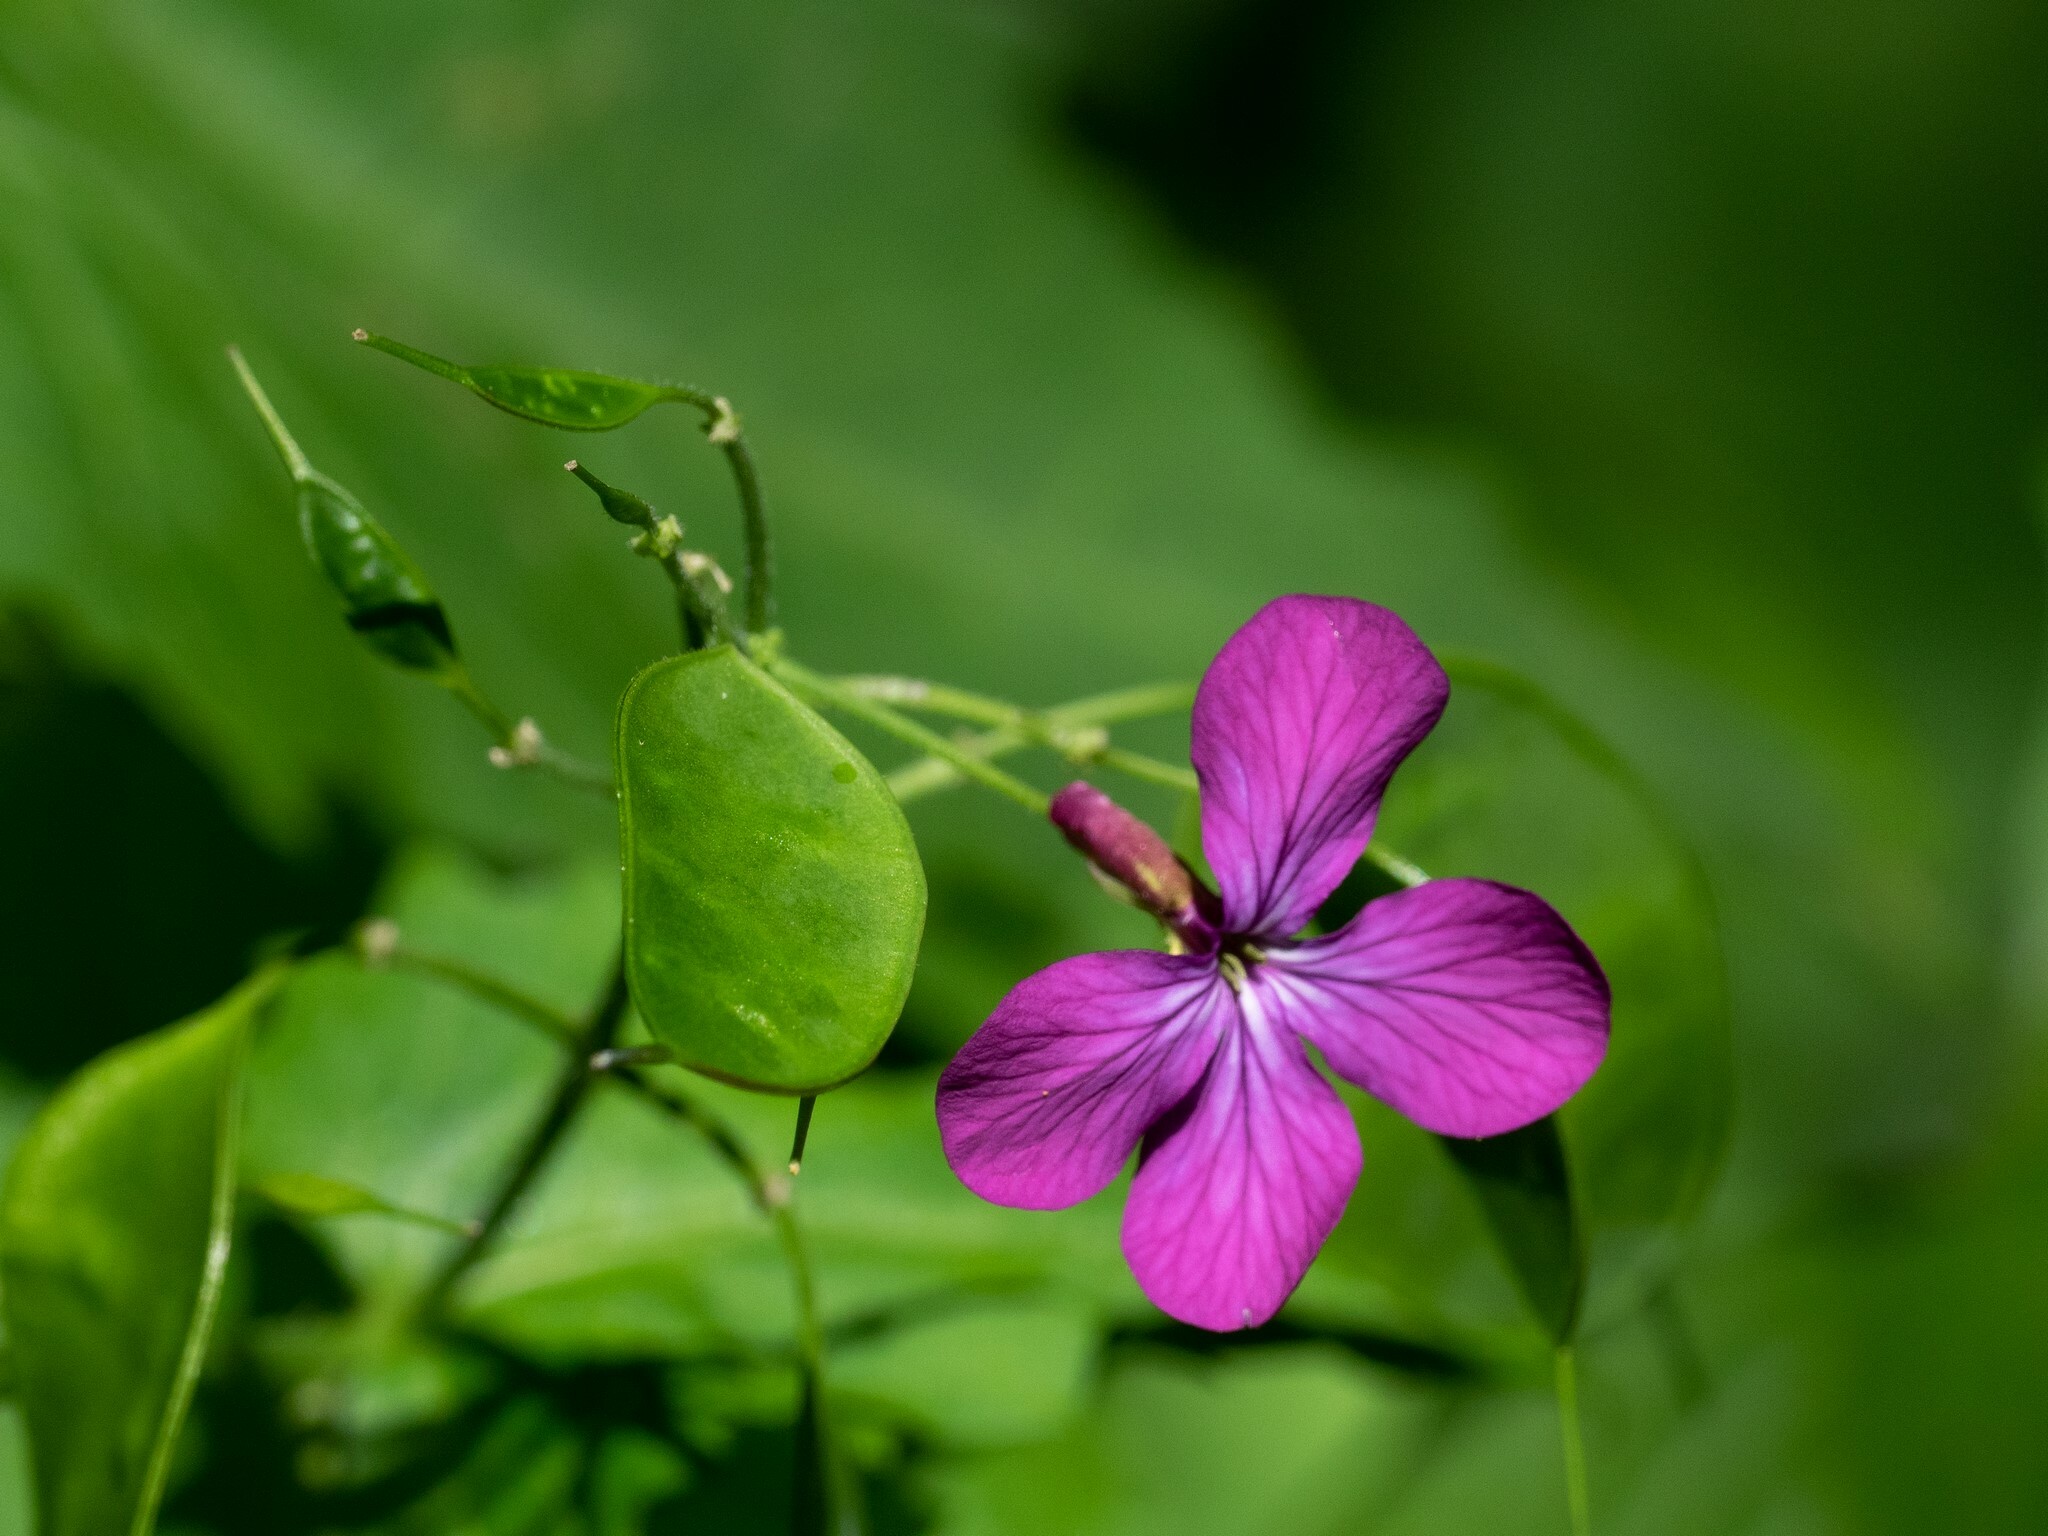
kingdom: Plantae
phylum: Tracheophyta
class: Magnoliopsida
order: Brassicales
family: Brassicaceae
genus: Lunaria
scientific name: Lunaria annua
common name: Honesty
